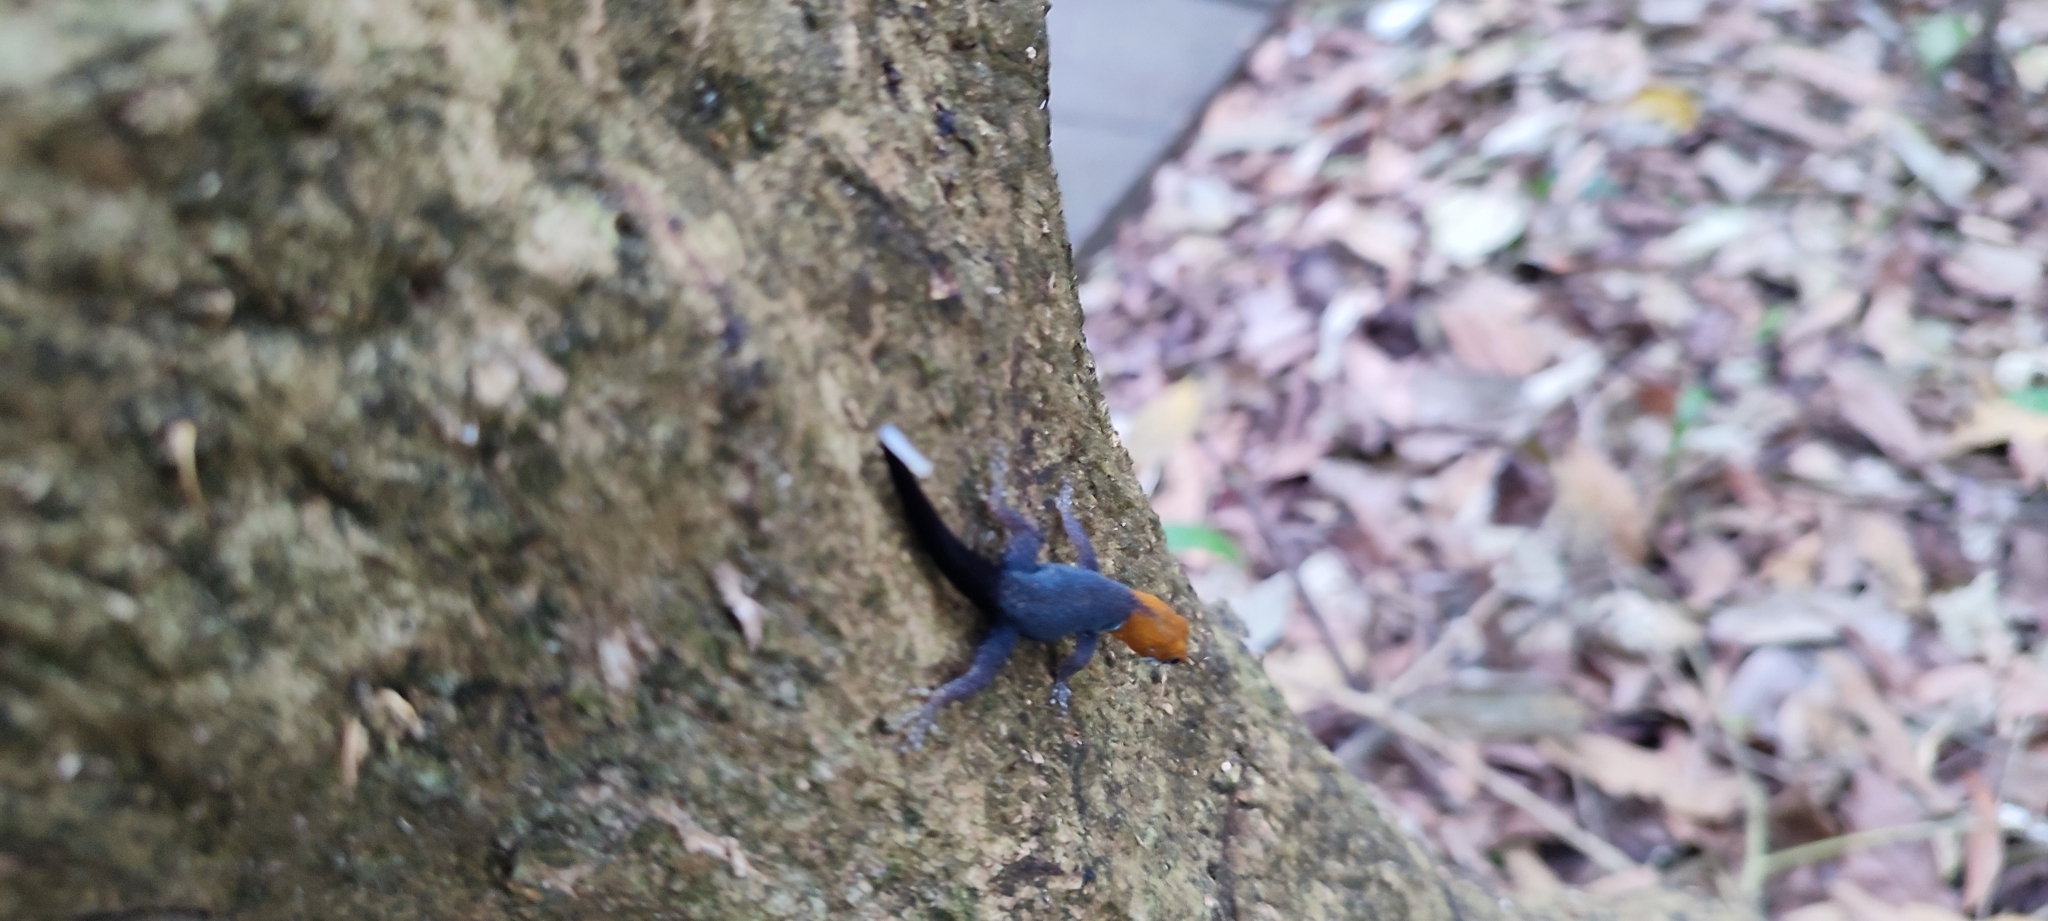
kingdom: Animalia
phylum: Chordata
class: Squamata
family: Sphaerodactylidae
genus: Gonatodes
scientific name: Gonatodes albogularis
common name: Yellow-headed gecko
